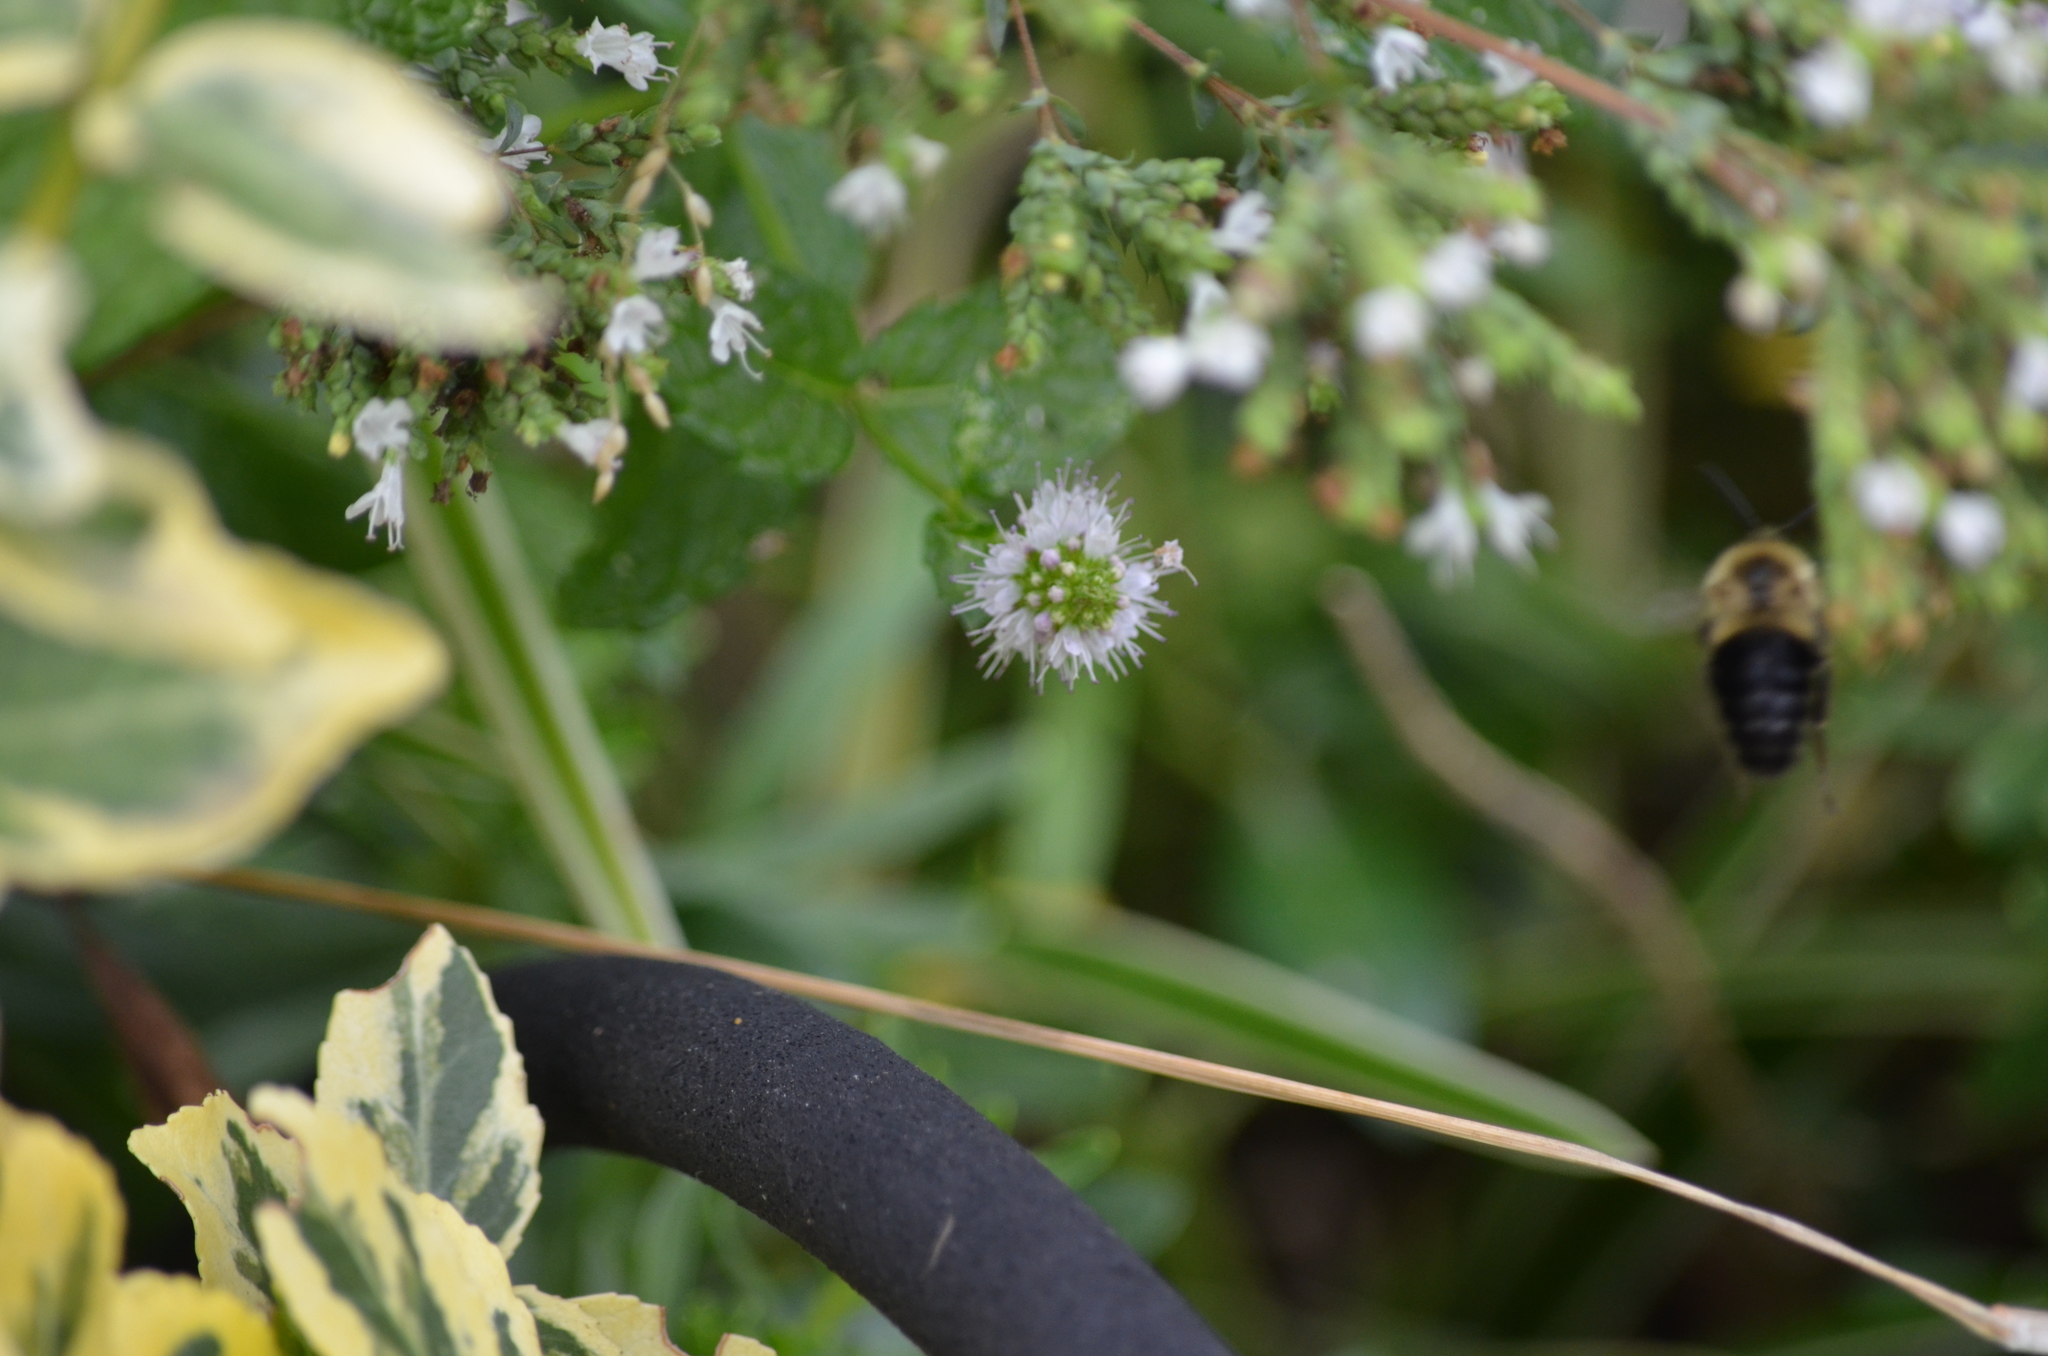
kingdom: Animalia
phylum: Arthropoda
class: Insecta
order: Hymenoptera
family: Apidae
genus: Bombus
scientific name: Bombus impatiens
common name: Common eastern bumble bee
